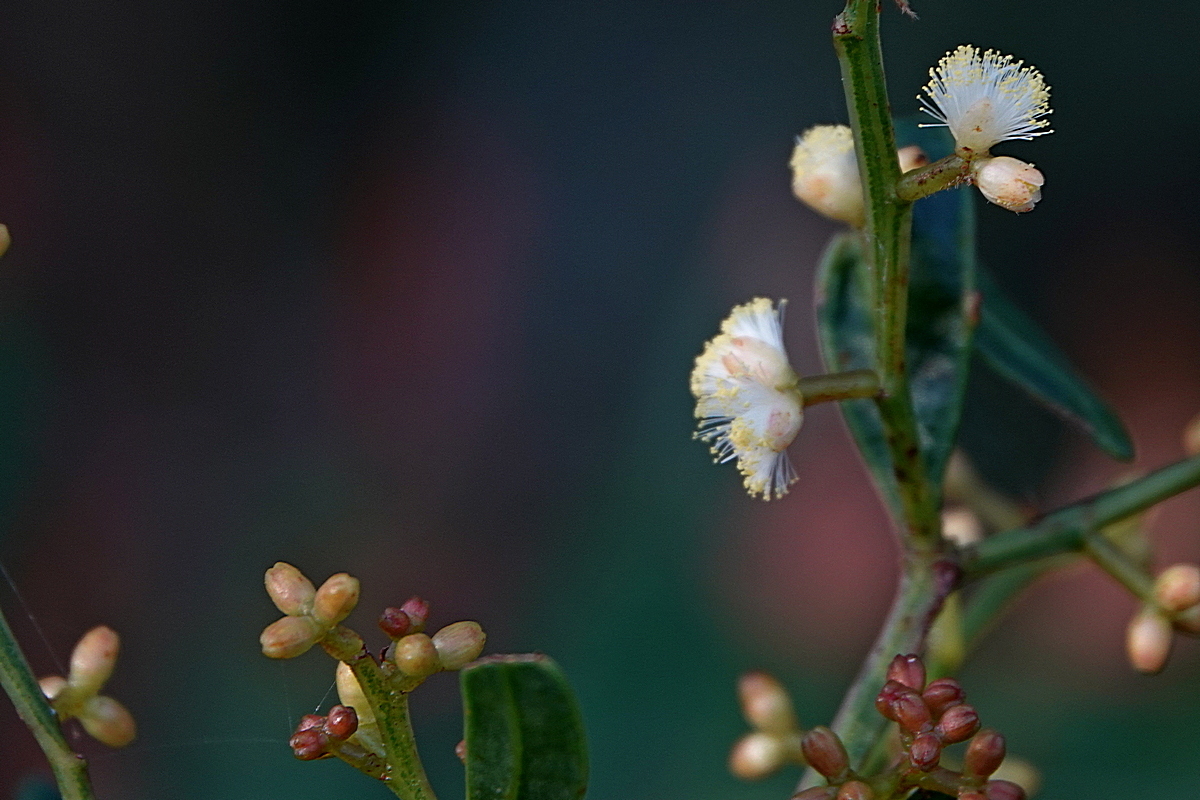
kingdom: Plantae
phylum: Tracheophyta
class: Magnoliopsida
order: Fabales
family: Fabaceae
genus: Acacia
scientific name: Acacia myrtifolia
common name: Myrtle wattle
